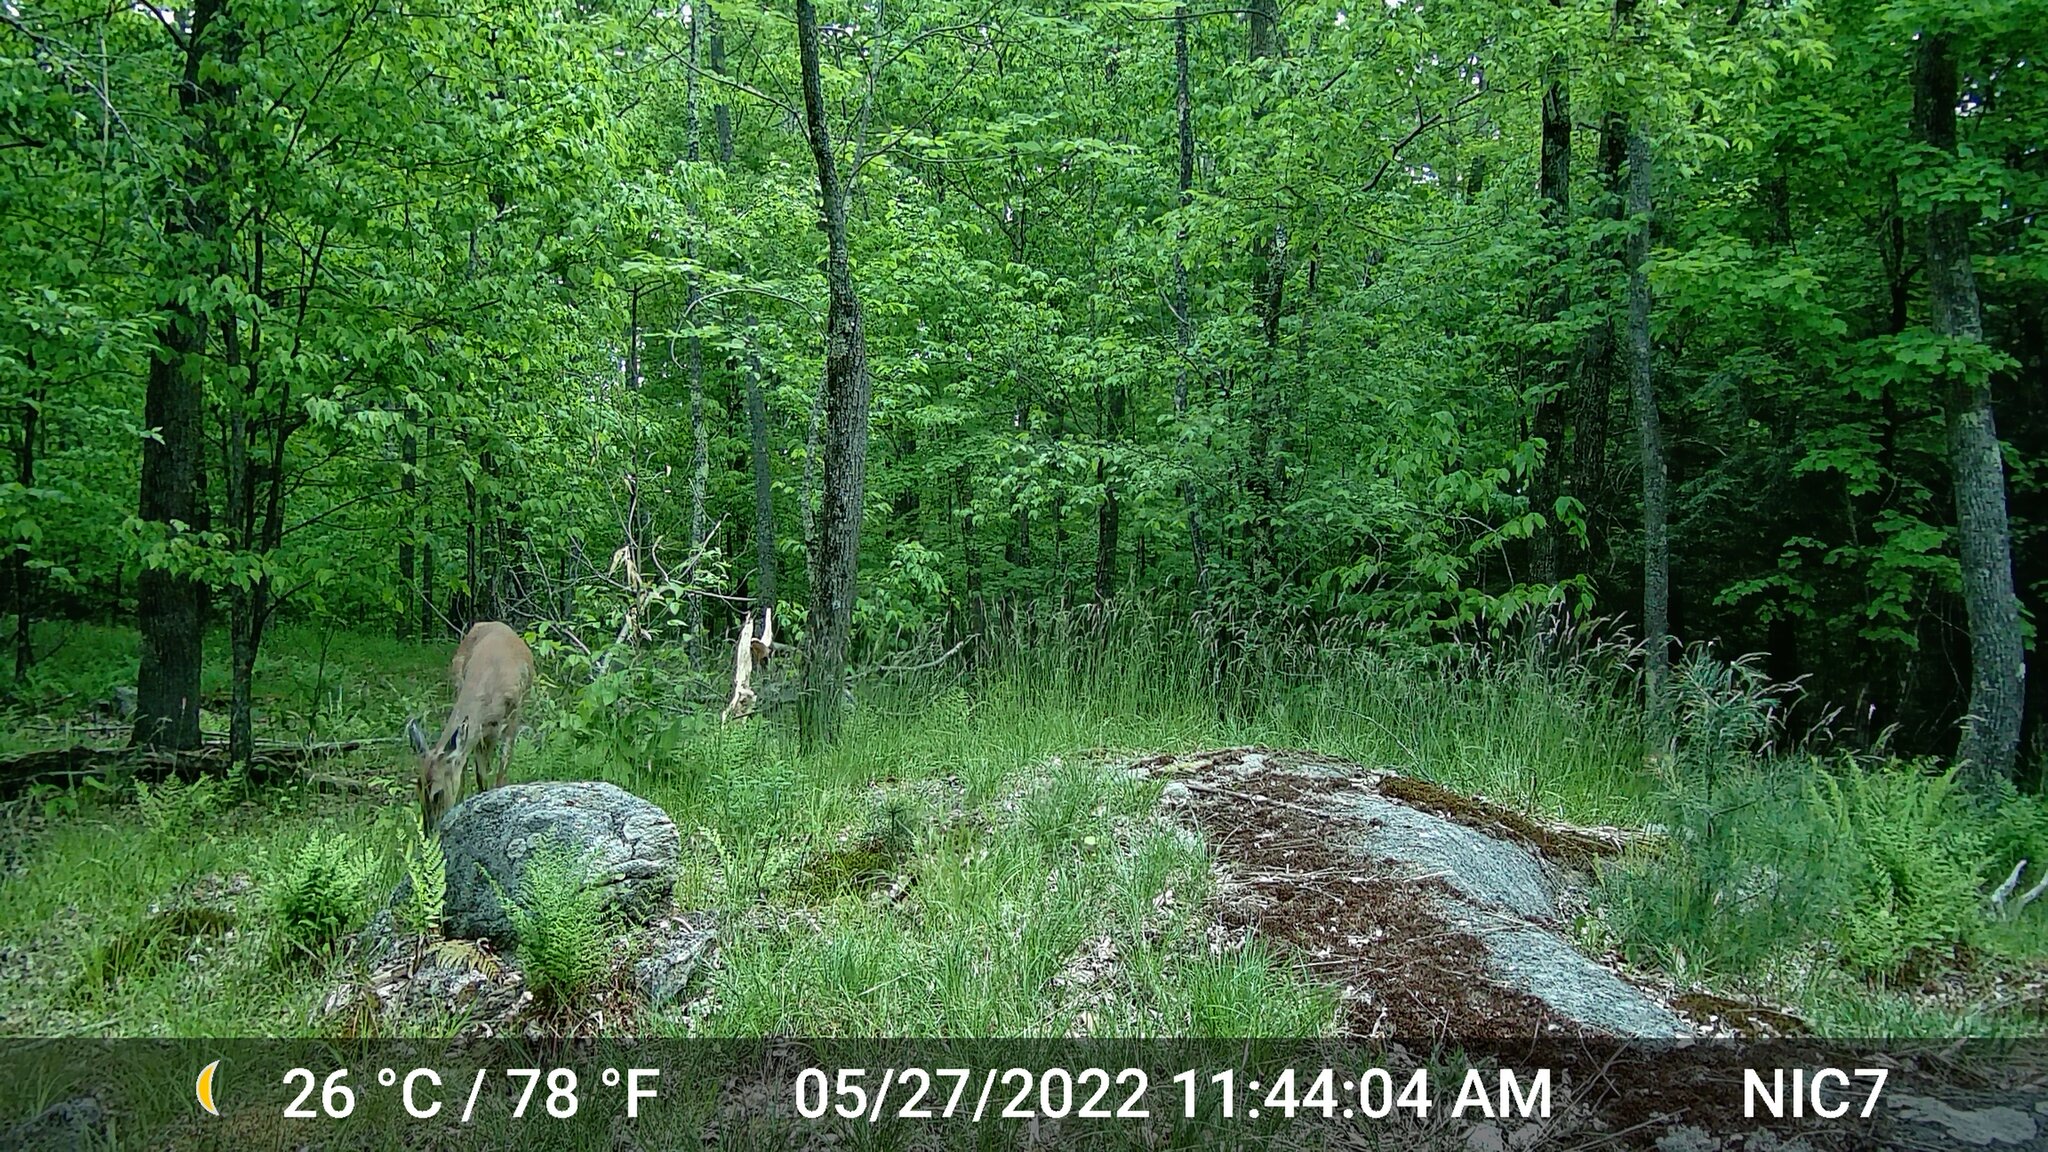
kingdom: Animalia
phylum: Chordata
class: Mammalia
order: Artiodactyla
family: Cervidae
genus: Odocoileus
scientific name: Odocoileus virginianus
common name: White-tailed deer
